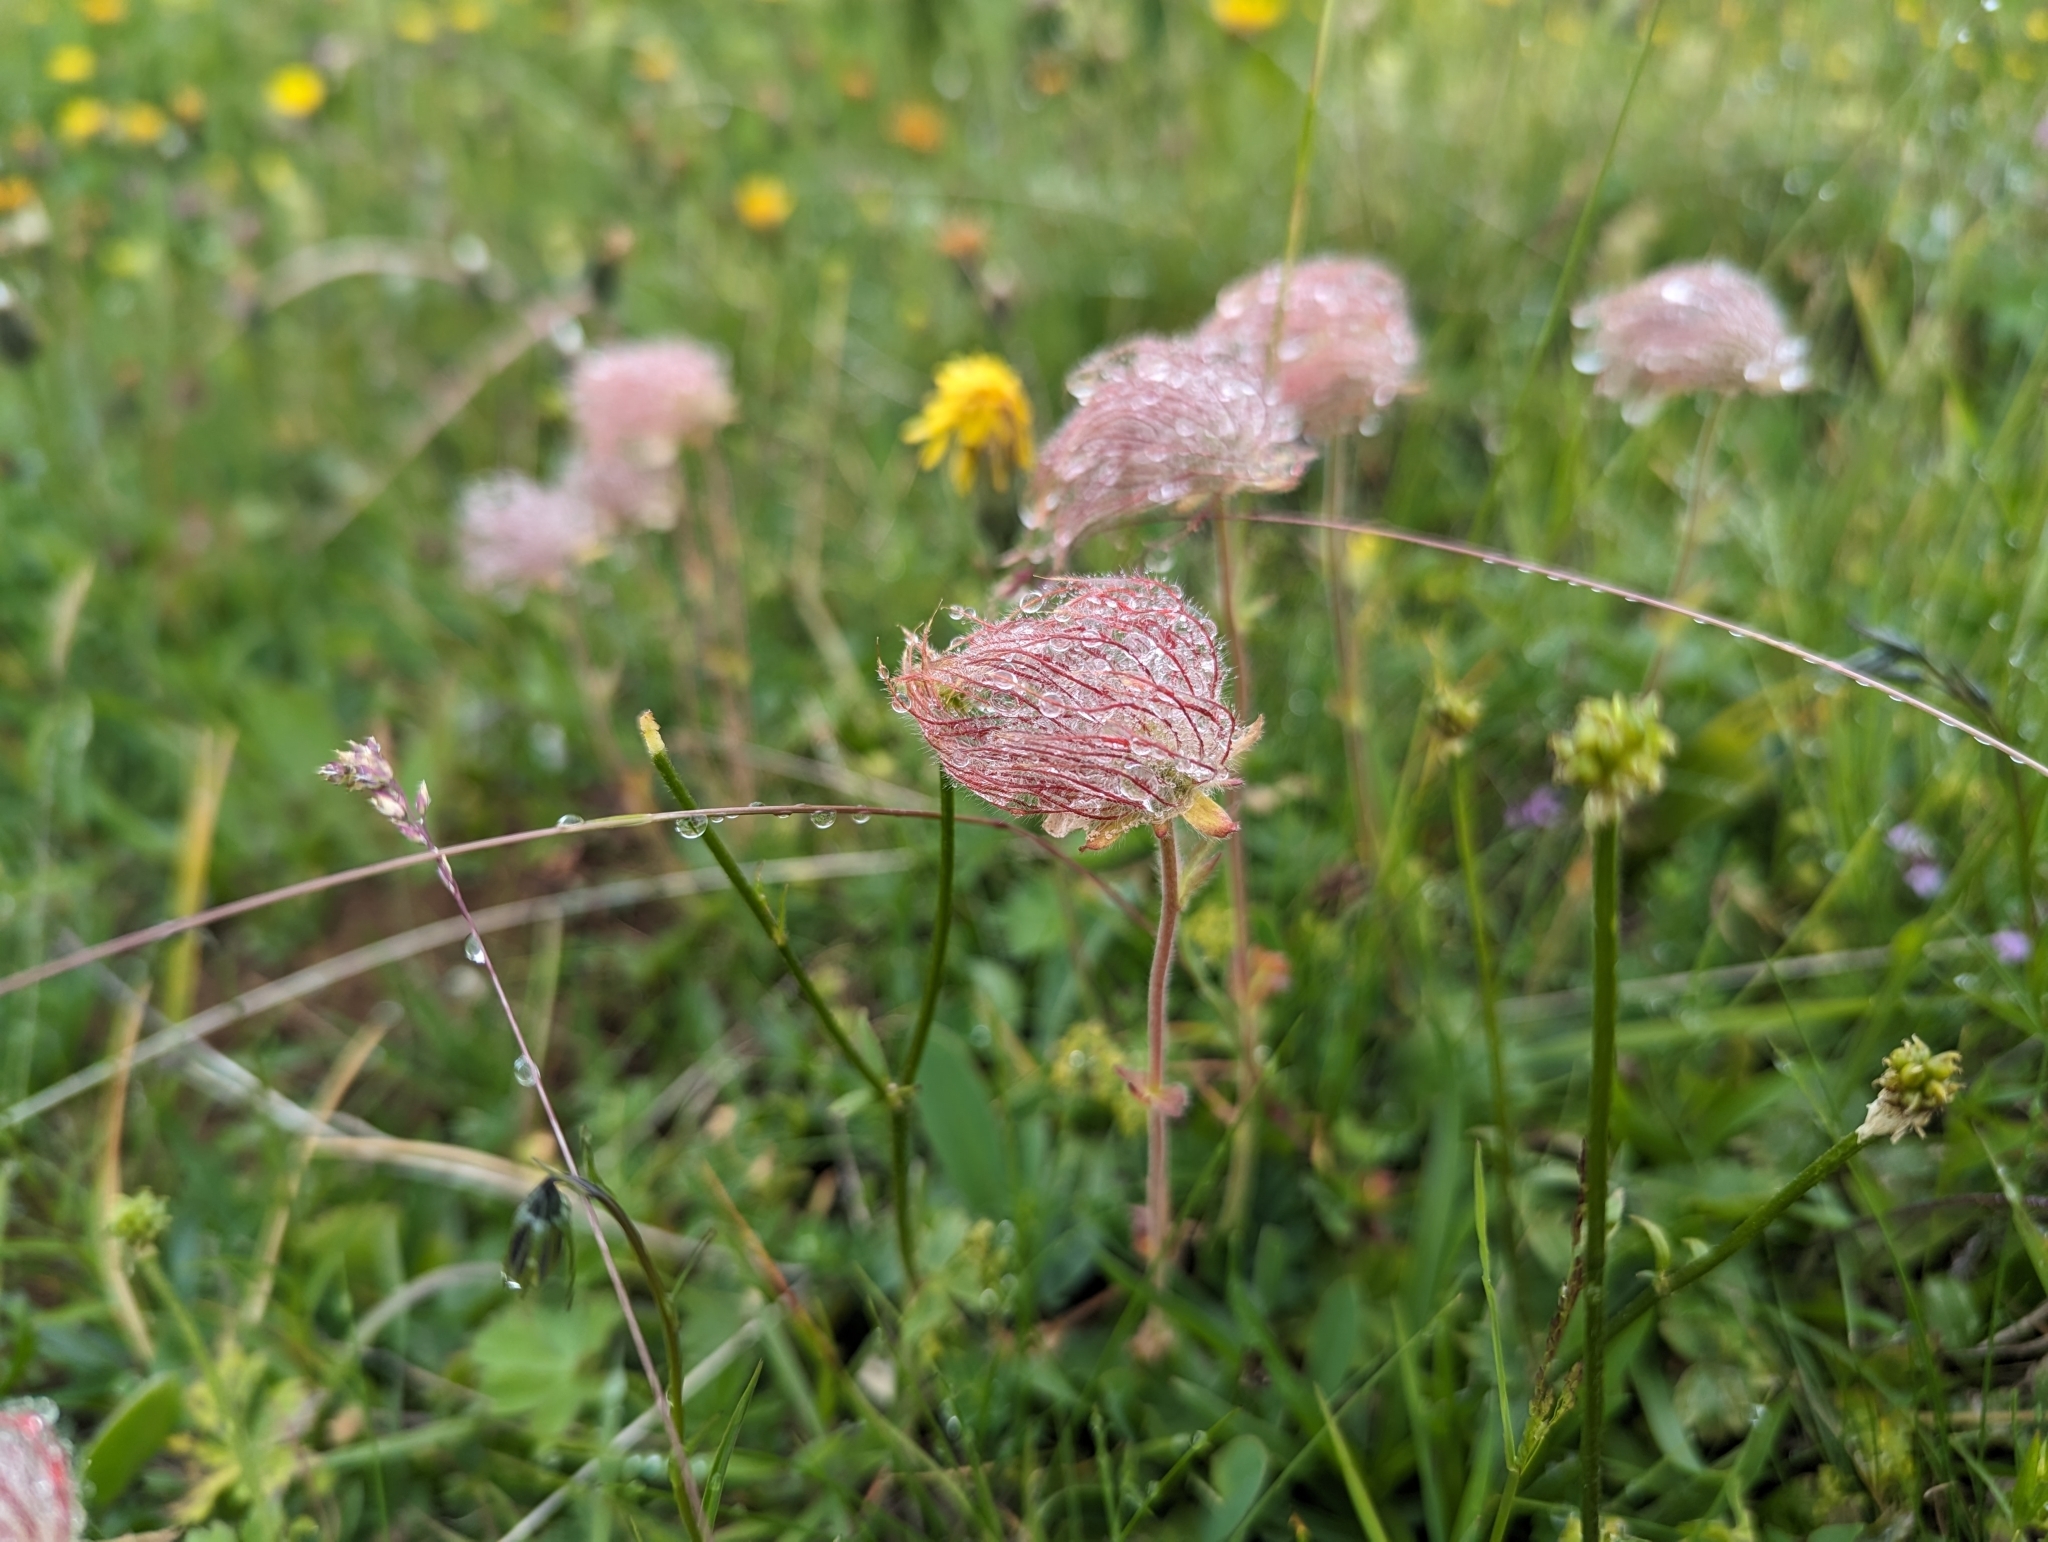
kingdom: Plantae
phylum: Tracheophyta
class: Magnoliopsida
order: Rosales
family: Rosaceae
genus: Geum
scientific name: Geum montanum
